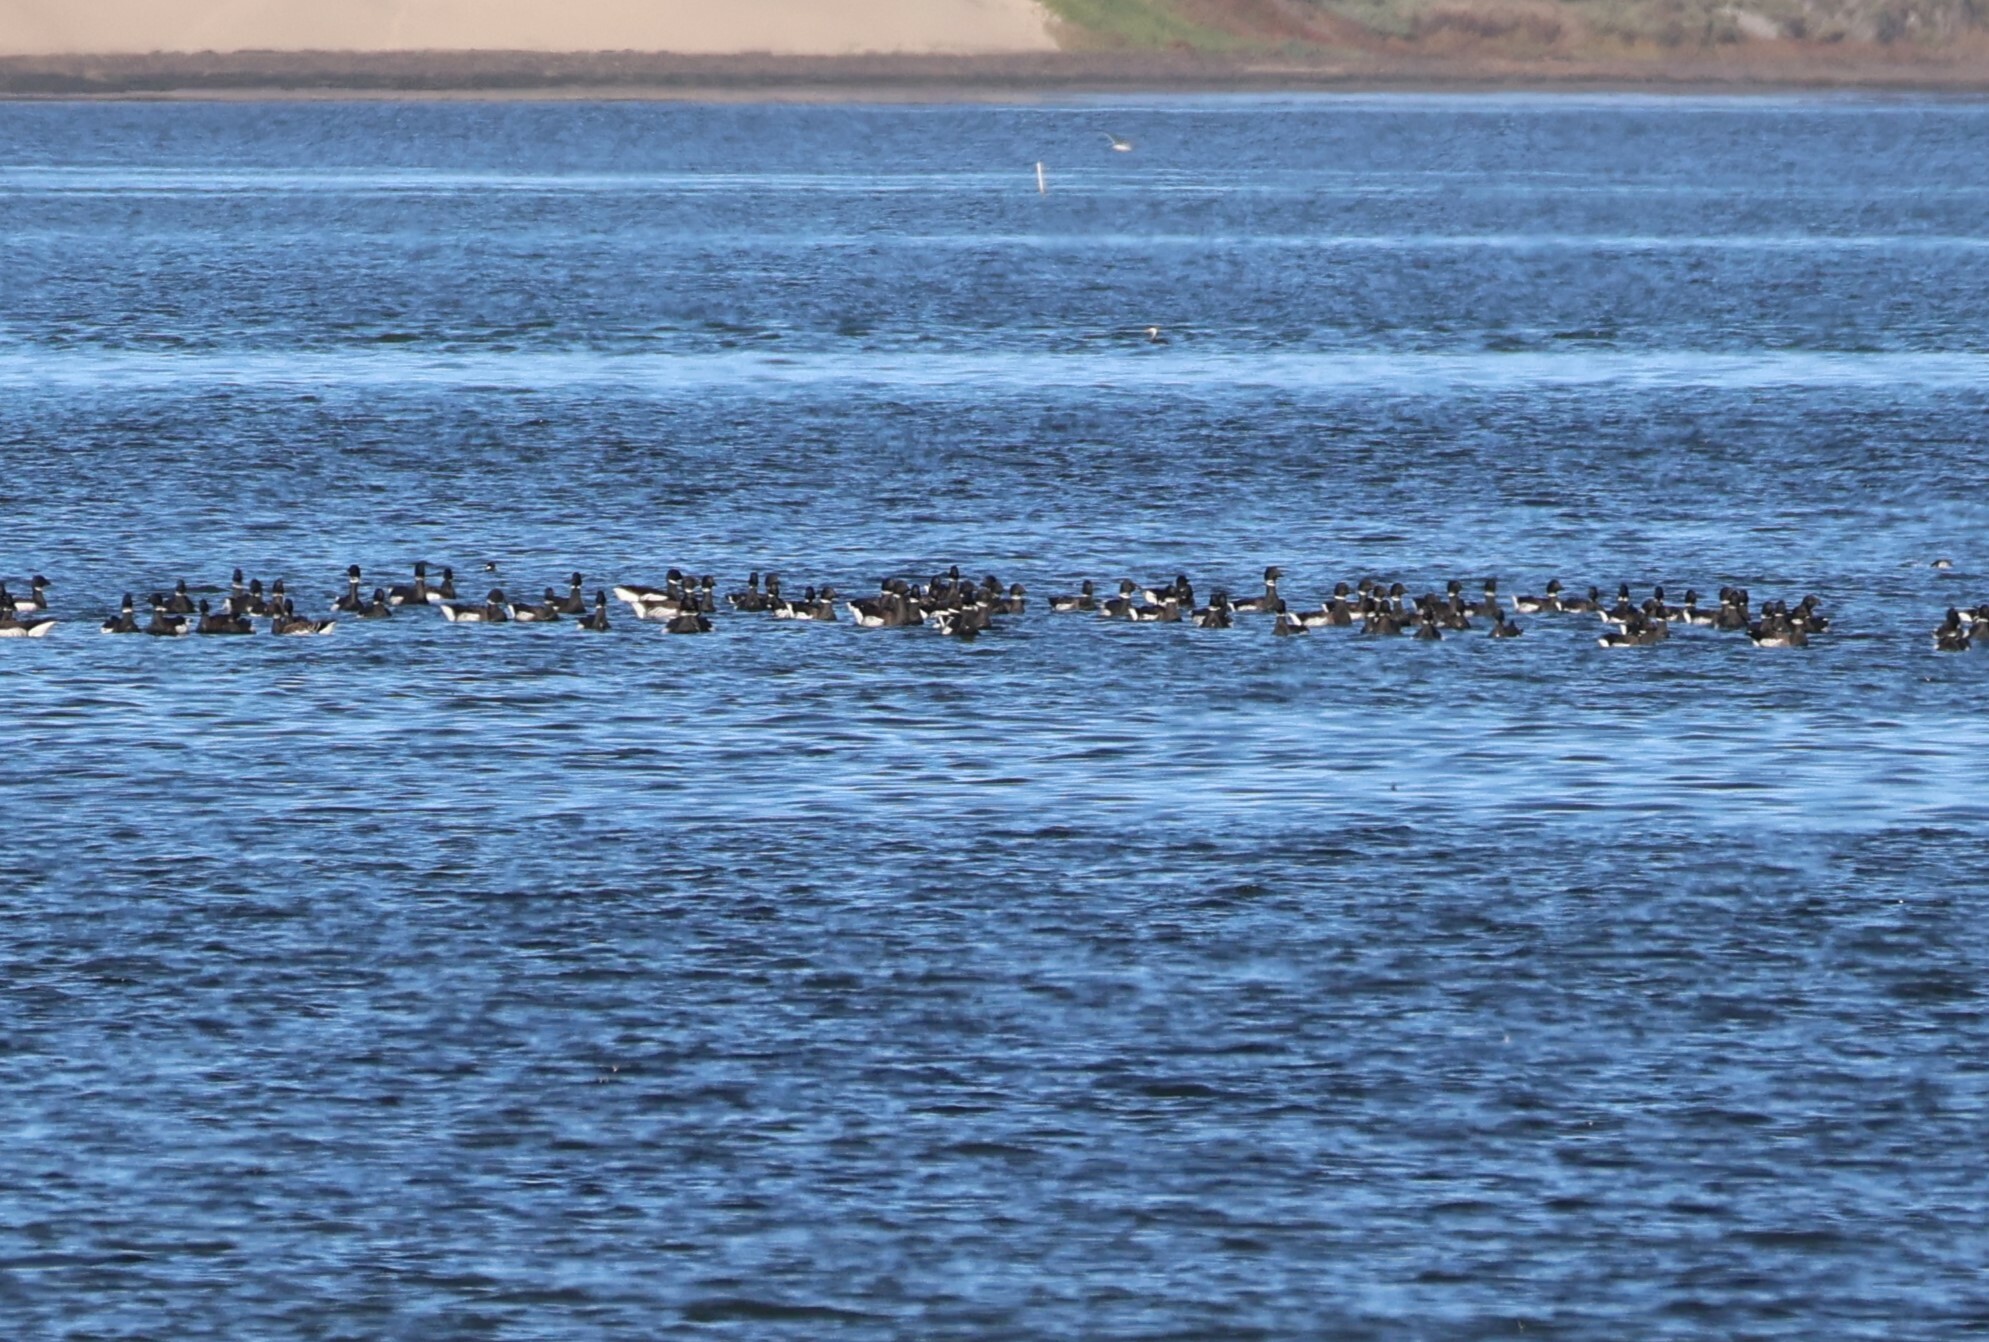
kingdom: Animalia
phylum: Chordata
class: Aves
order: Anseriformes
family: Anatidae
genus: Branta
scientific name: Branta bernicla
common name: Brant goose
